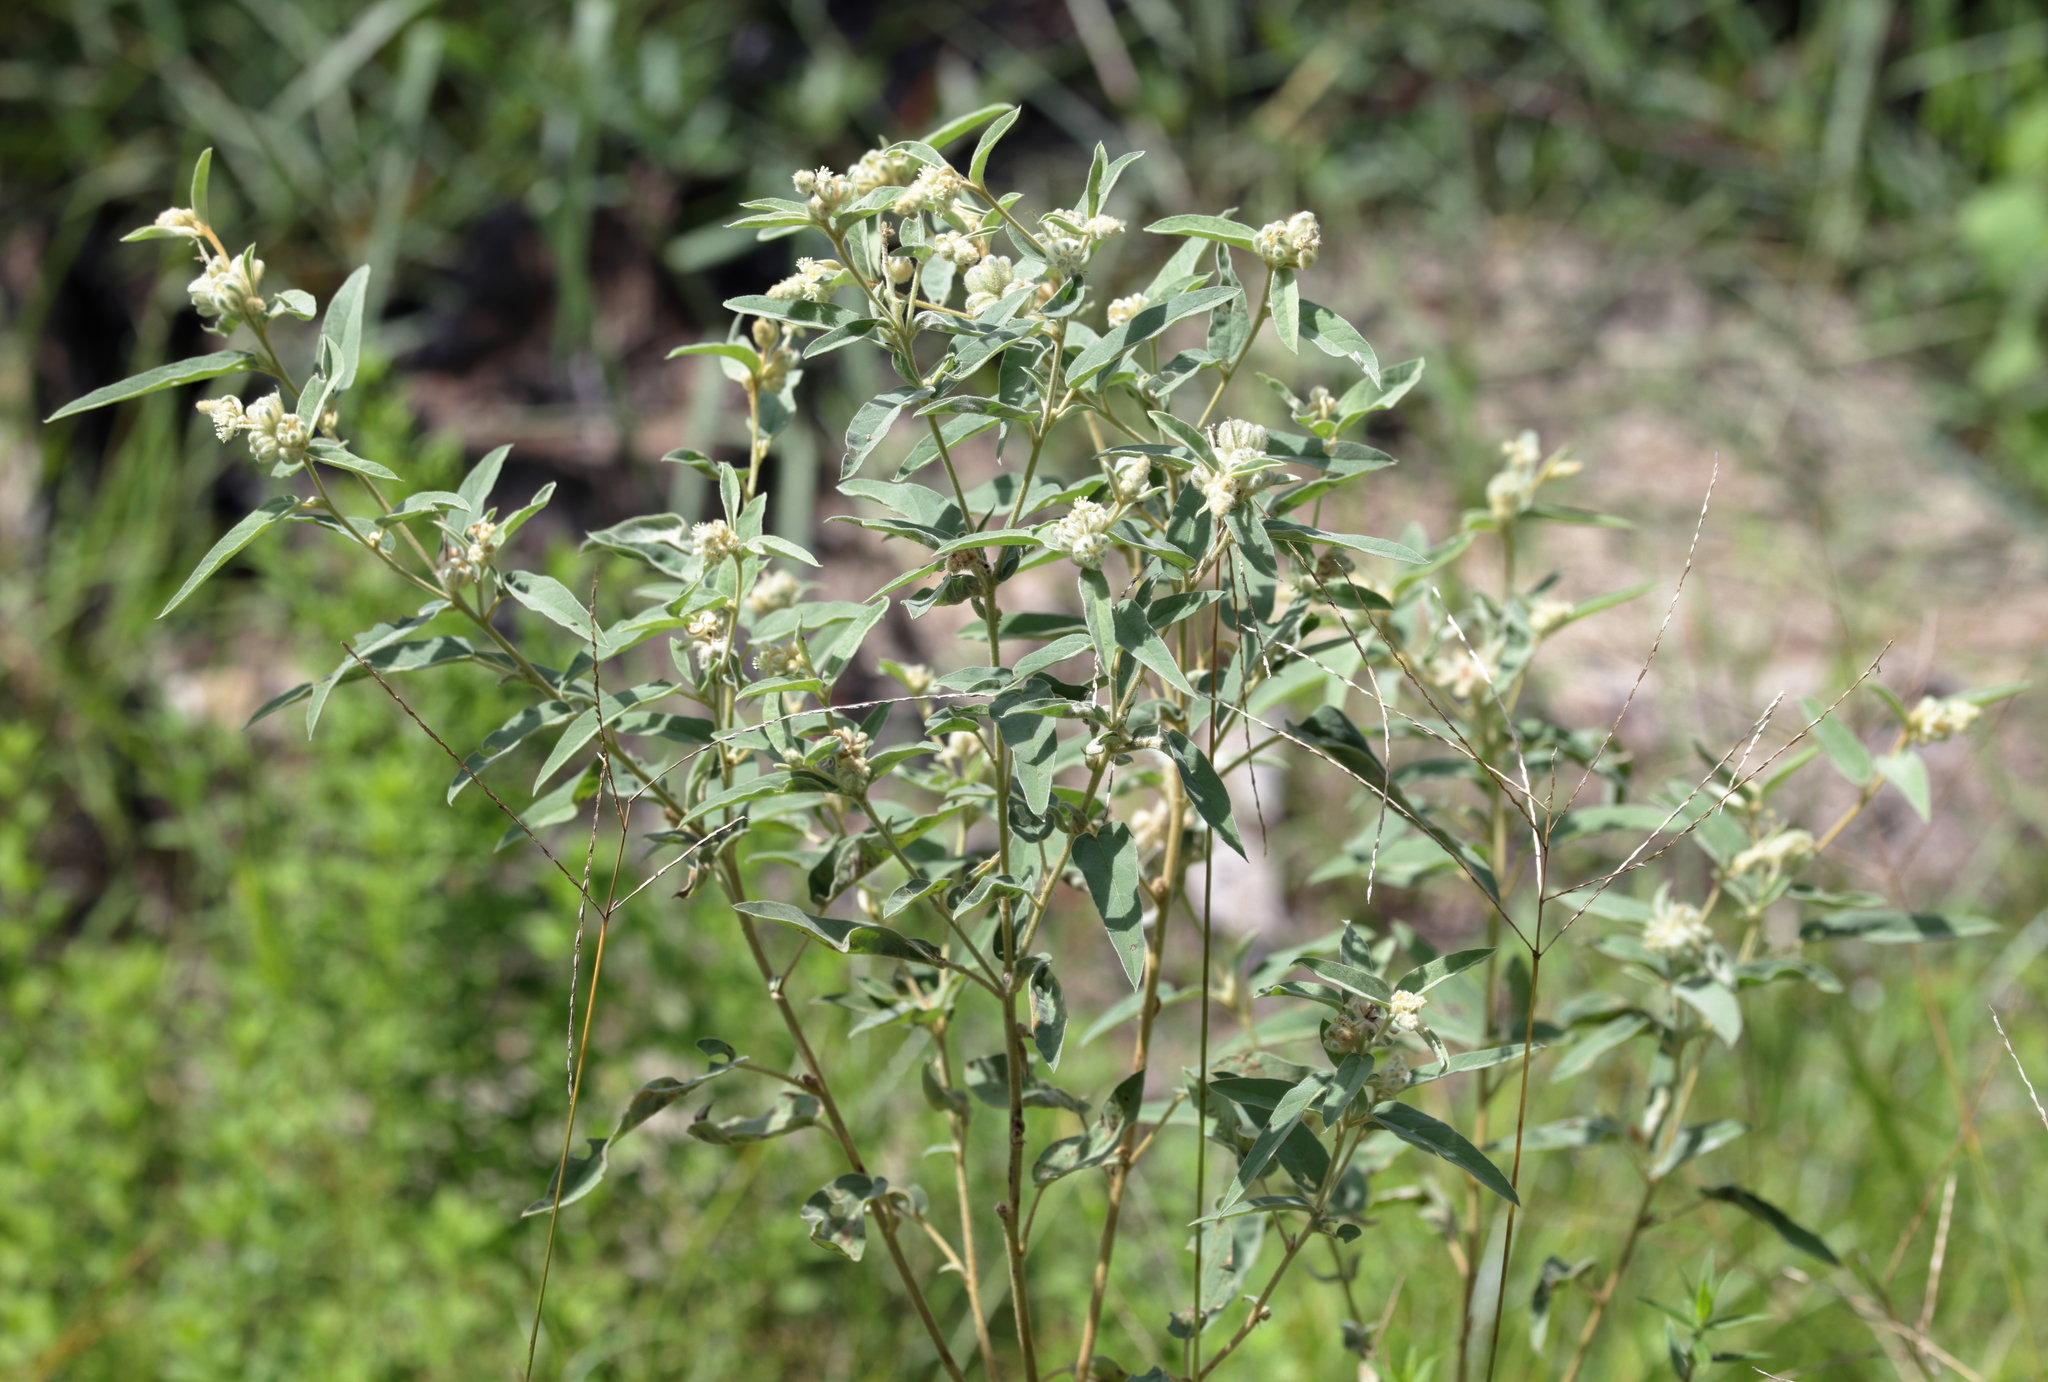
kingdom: Plantae
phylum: Tracheophyta
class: Magnoliopsida
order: Malpighiales
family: Euphorbiaceae
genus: Croton
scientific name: Croton lindheimeri
